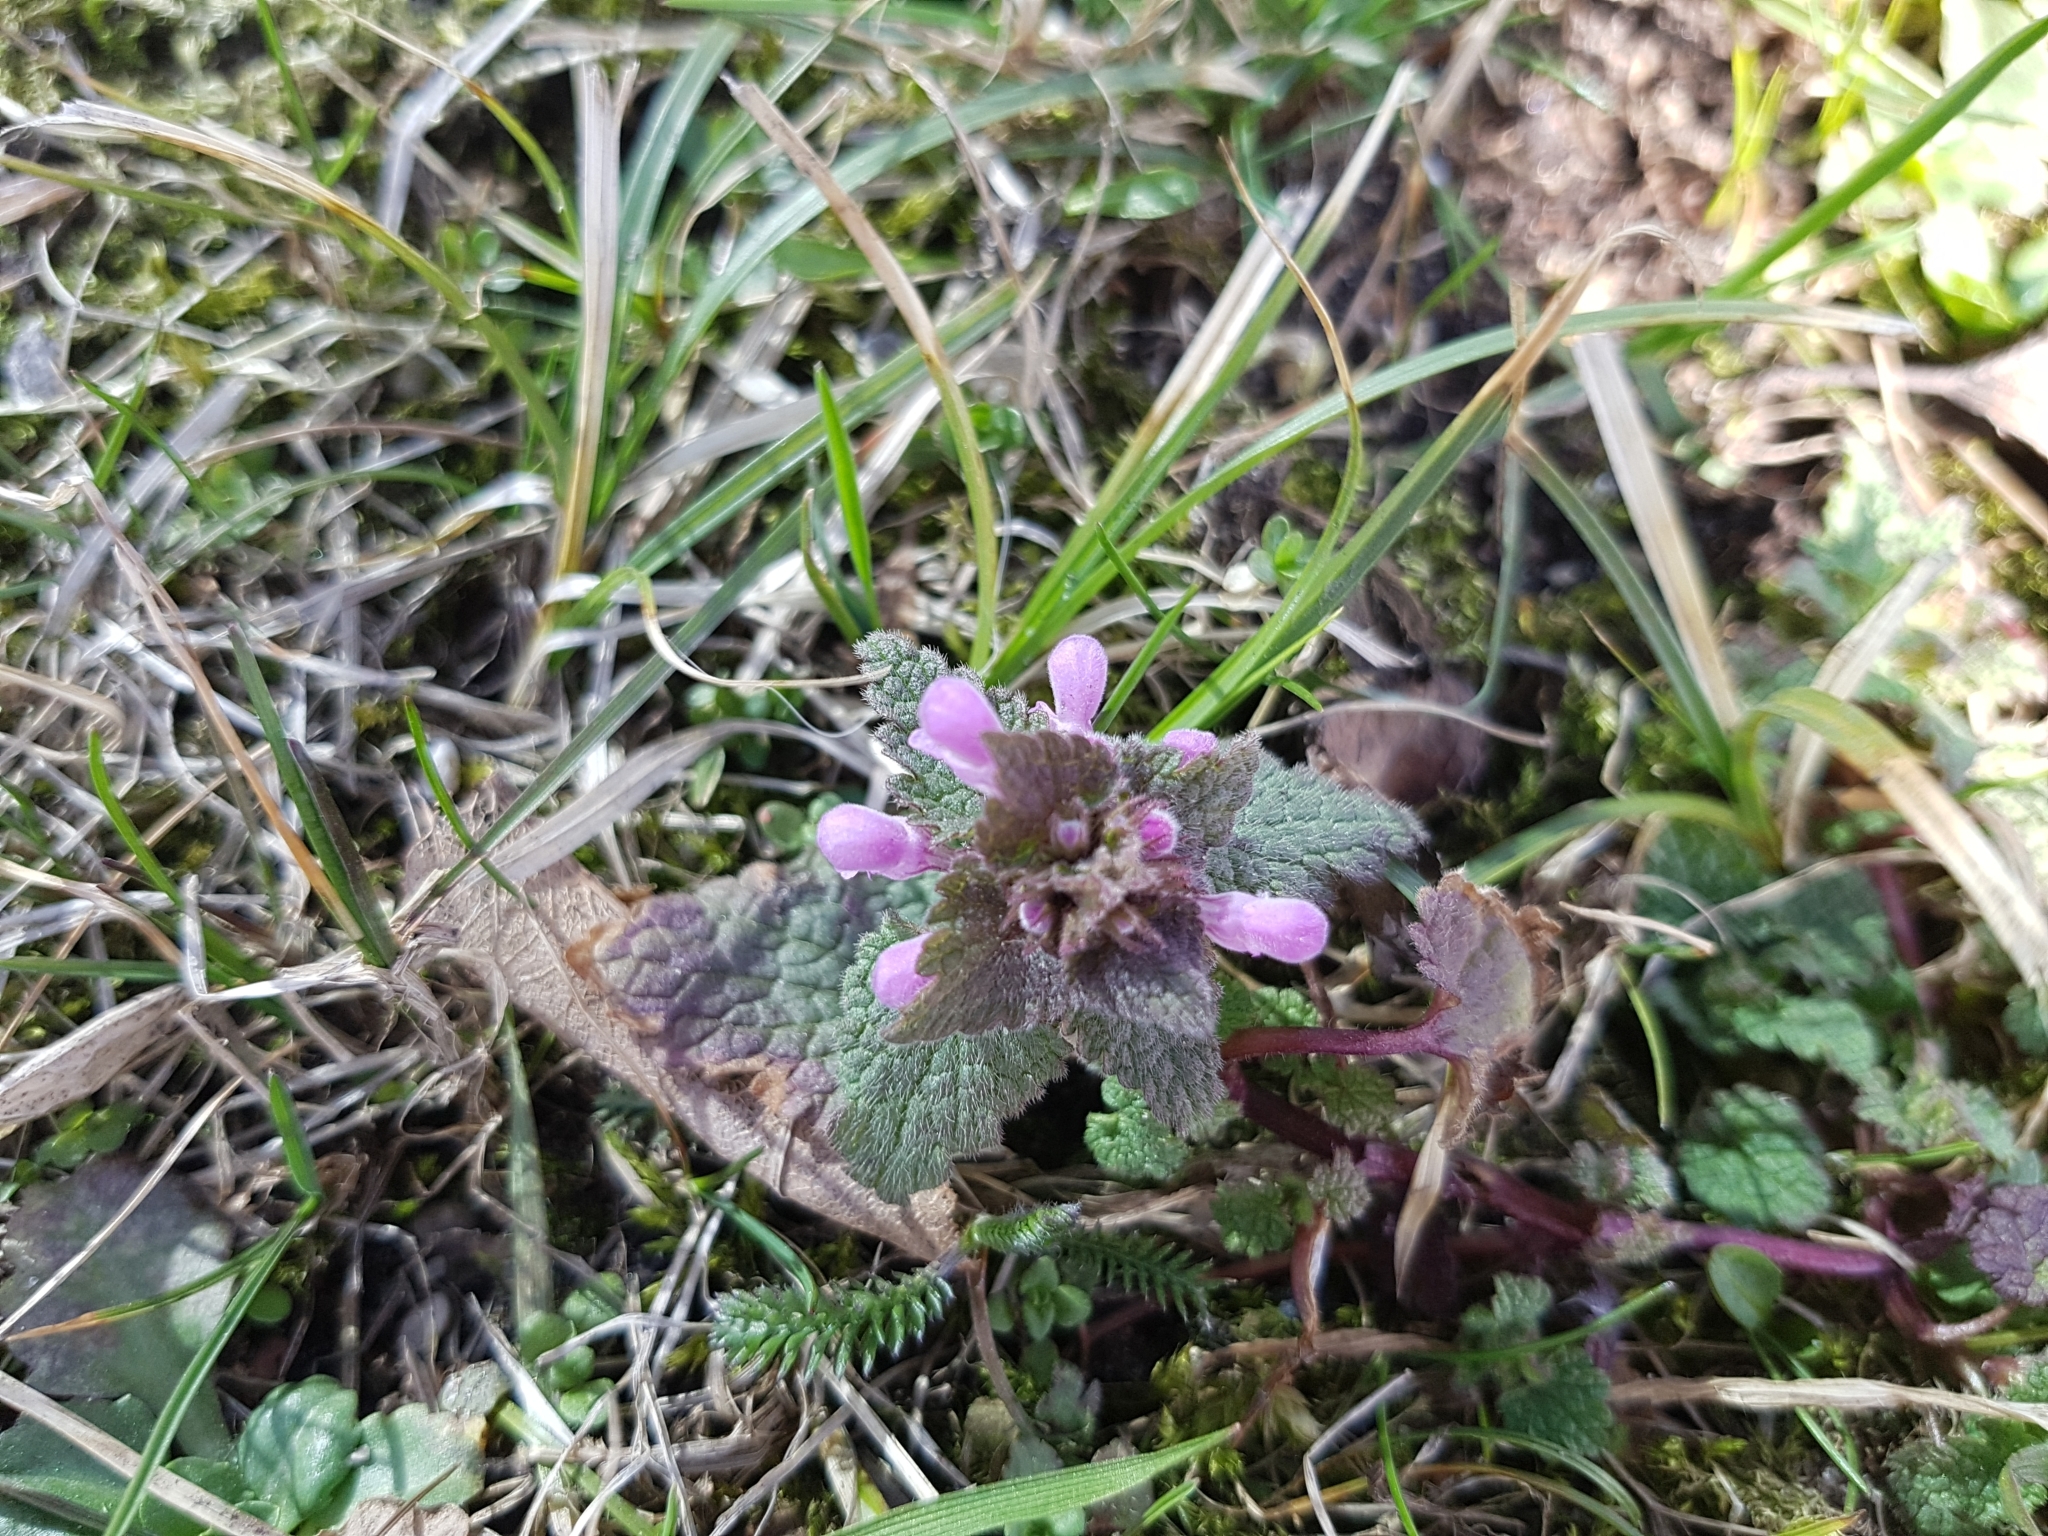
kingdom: Plantae
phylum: Tracheophyta
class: Magnoliopsida
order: Lamiales
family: Lamiaceae
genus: Lamium
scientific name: Lamium purpureum
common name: Red dead-nettle
